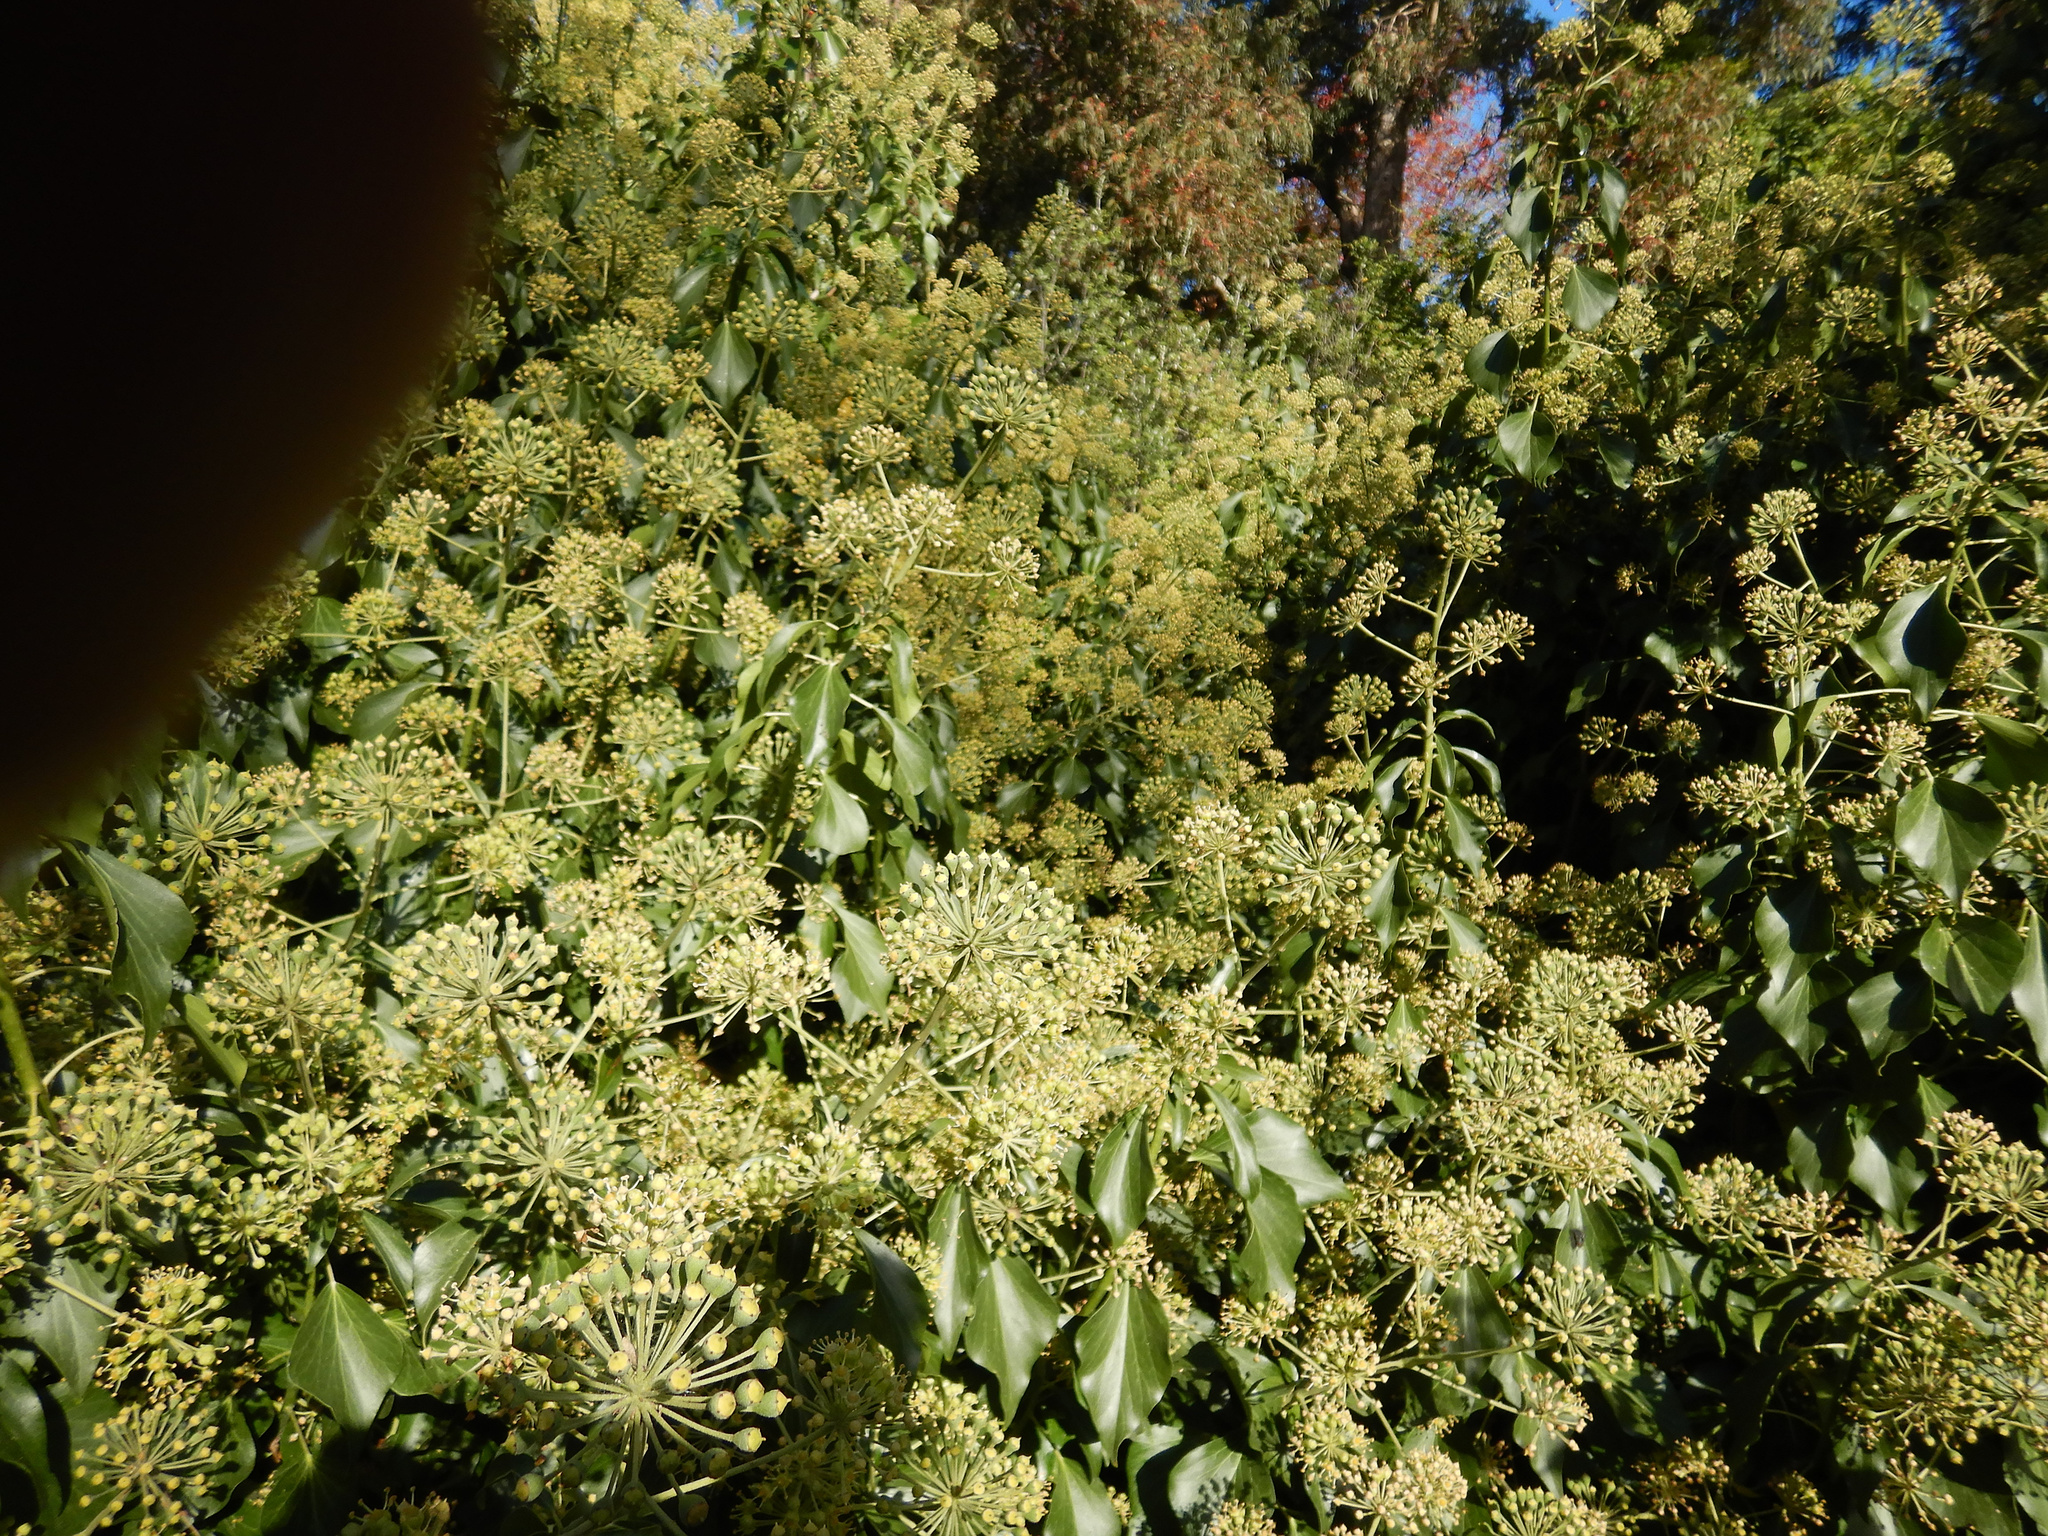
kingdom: Plantae
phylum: Tracheophyta
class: Magnoliopsida
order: Apiales
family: Araliaceae
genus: Hedera
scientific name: Hedera helix
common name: Ivy
